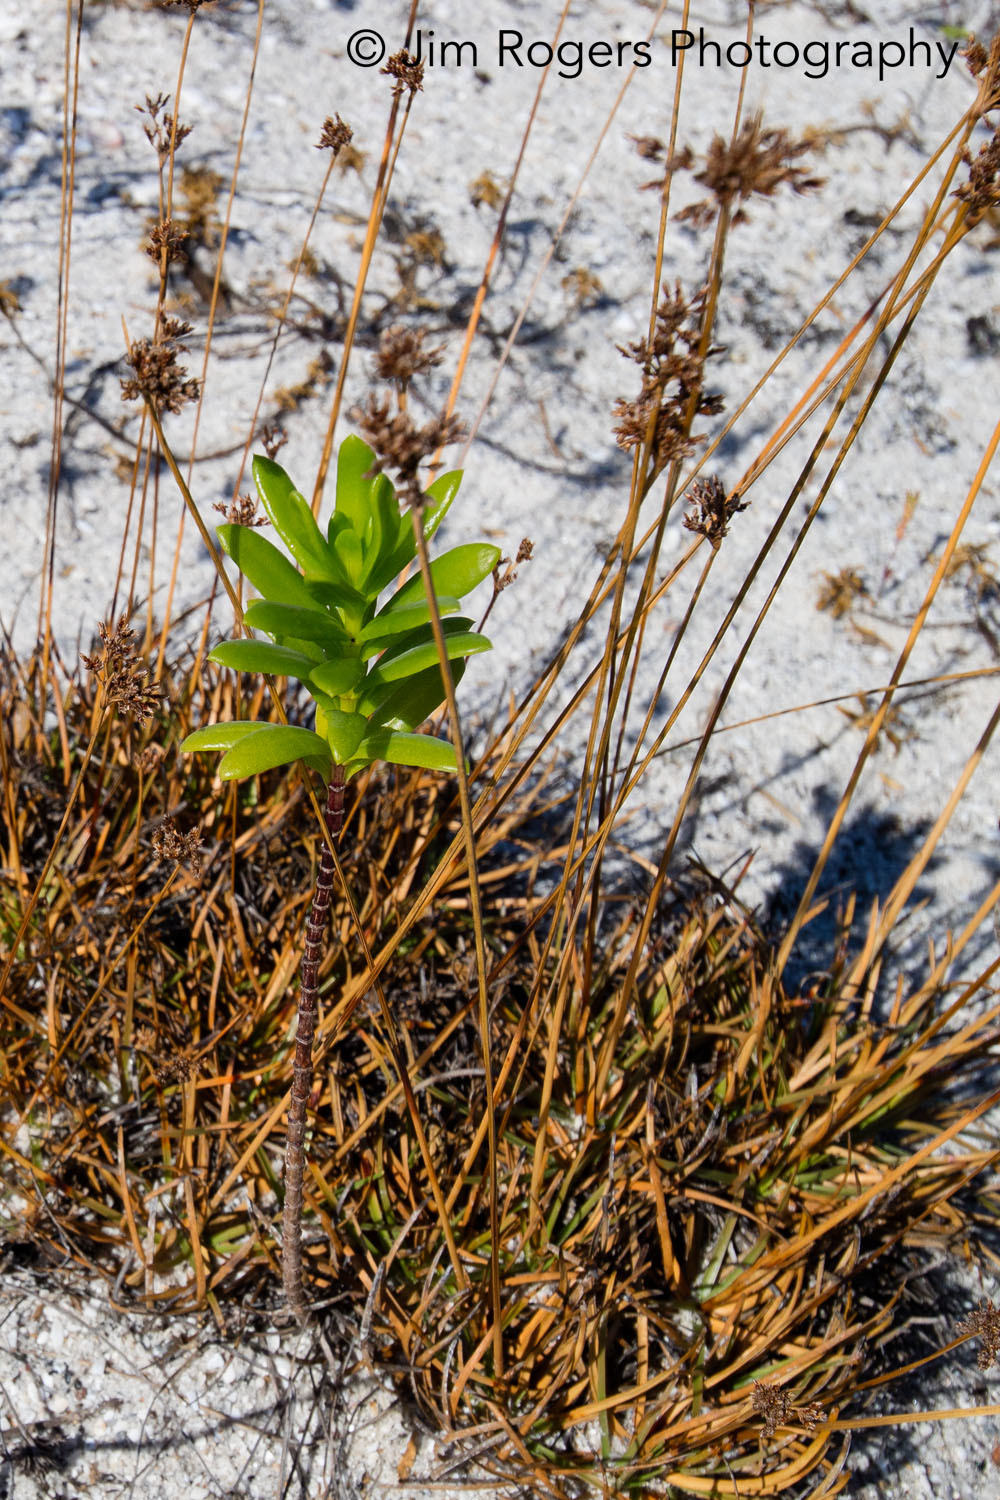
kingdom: Plantae
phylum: Tracheophyta
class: Magnoliopsida
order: Asterales
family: Asteraceae
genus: Iva
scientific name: Iva imbricata
